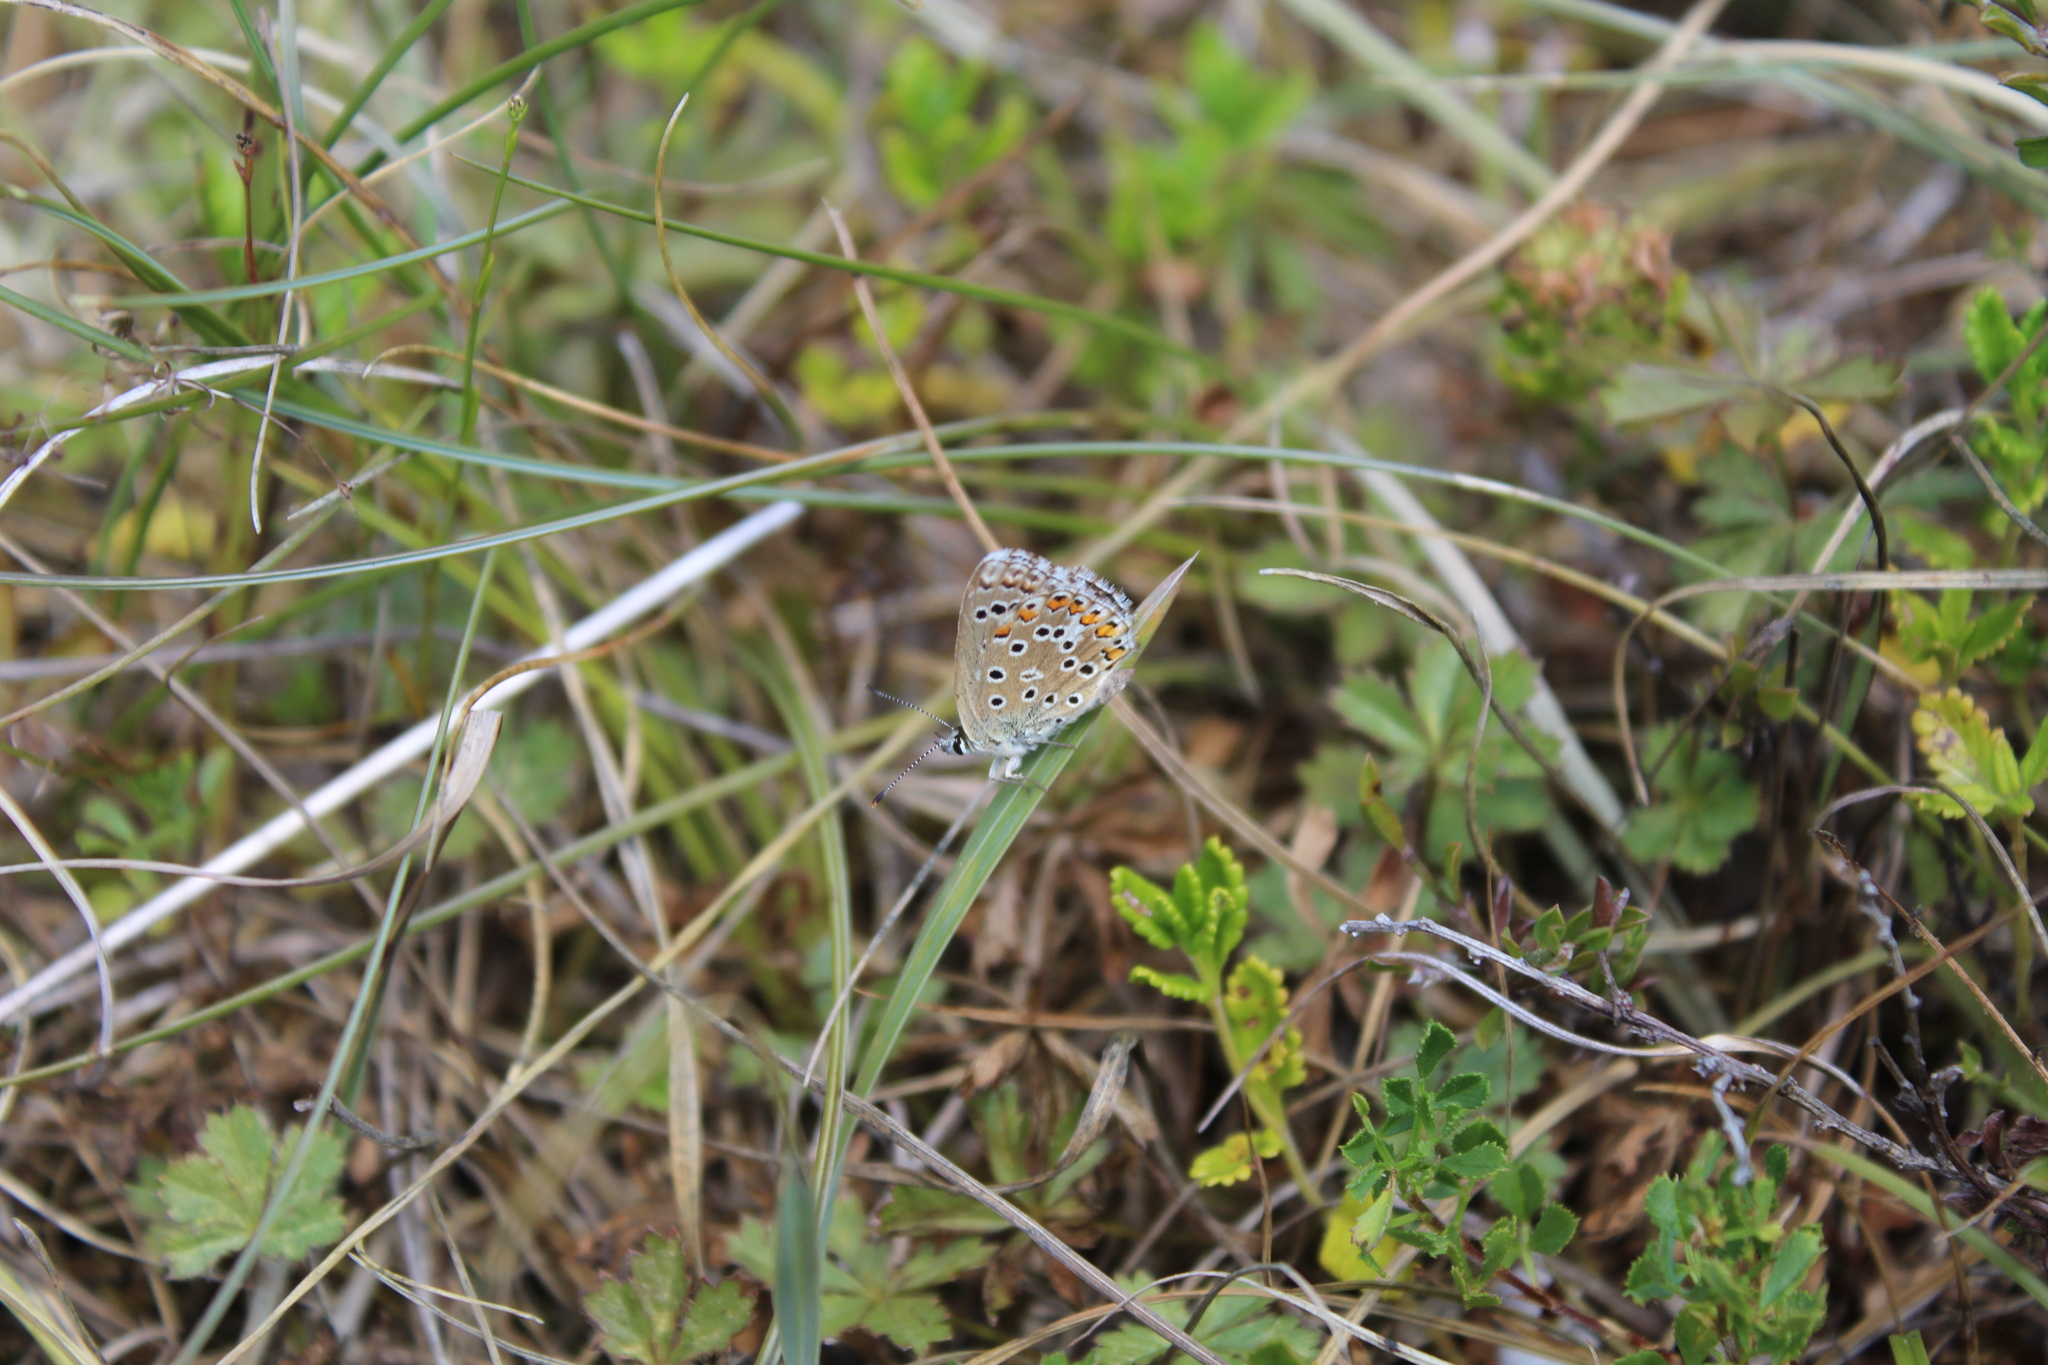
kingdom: Animalia
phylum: Arthropoda
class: Insecta
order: Lepidoptera
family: Lycaenidae
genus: Lysandra
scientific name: Lysandra bellargus
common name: Adonis blue
